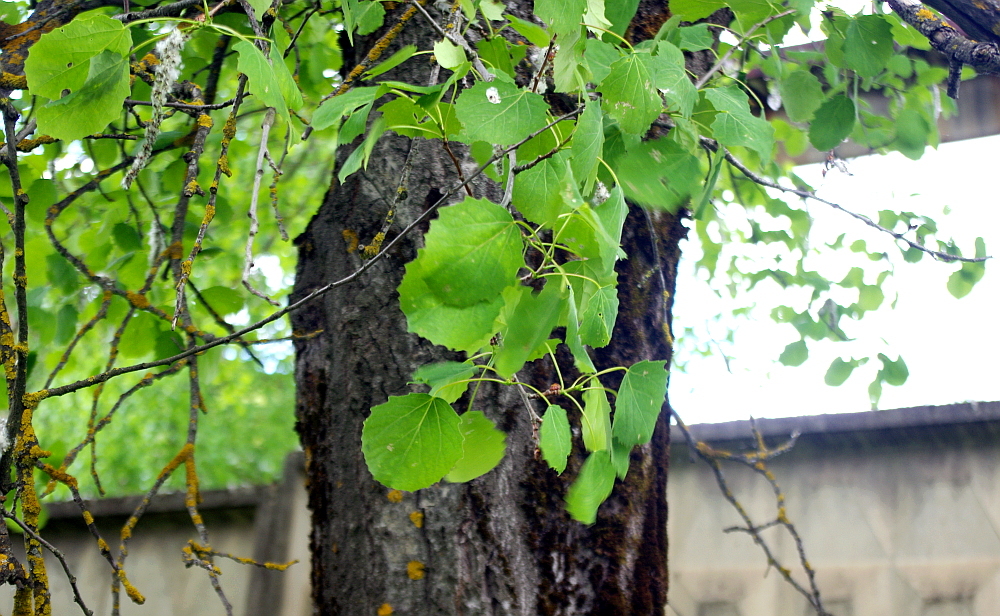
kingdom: Plantae
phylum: Tracheophyta
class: Magnoliopsida
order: Malpighiales
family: Salicaceae
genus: Populus
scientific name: Populus tremula
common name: European aspen
